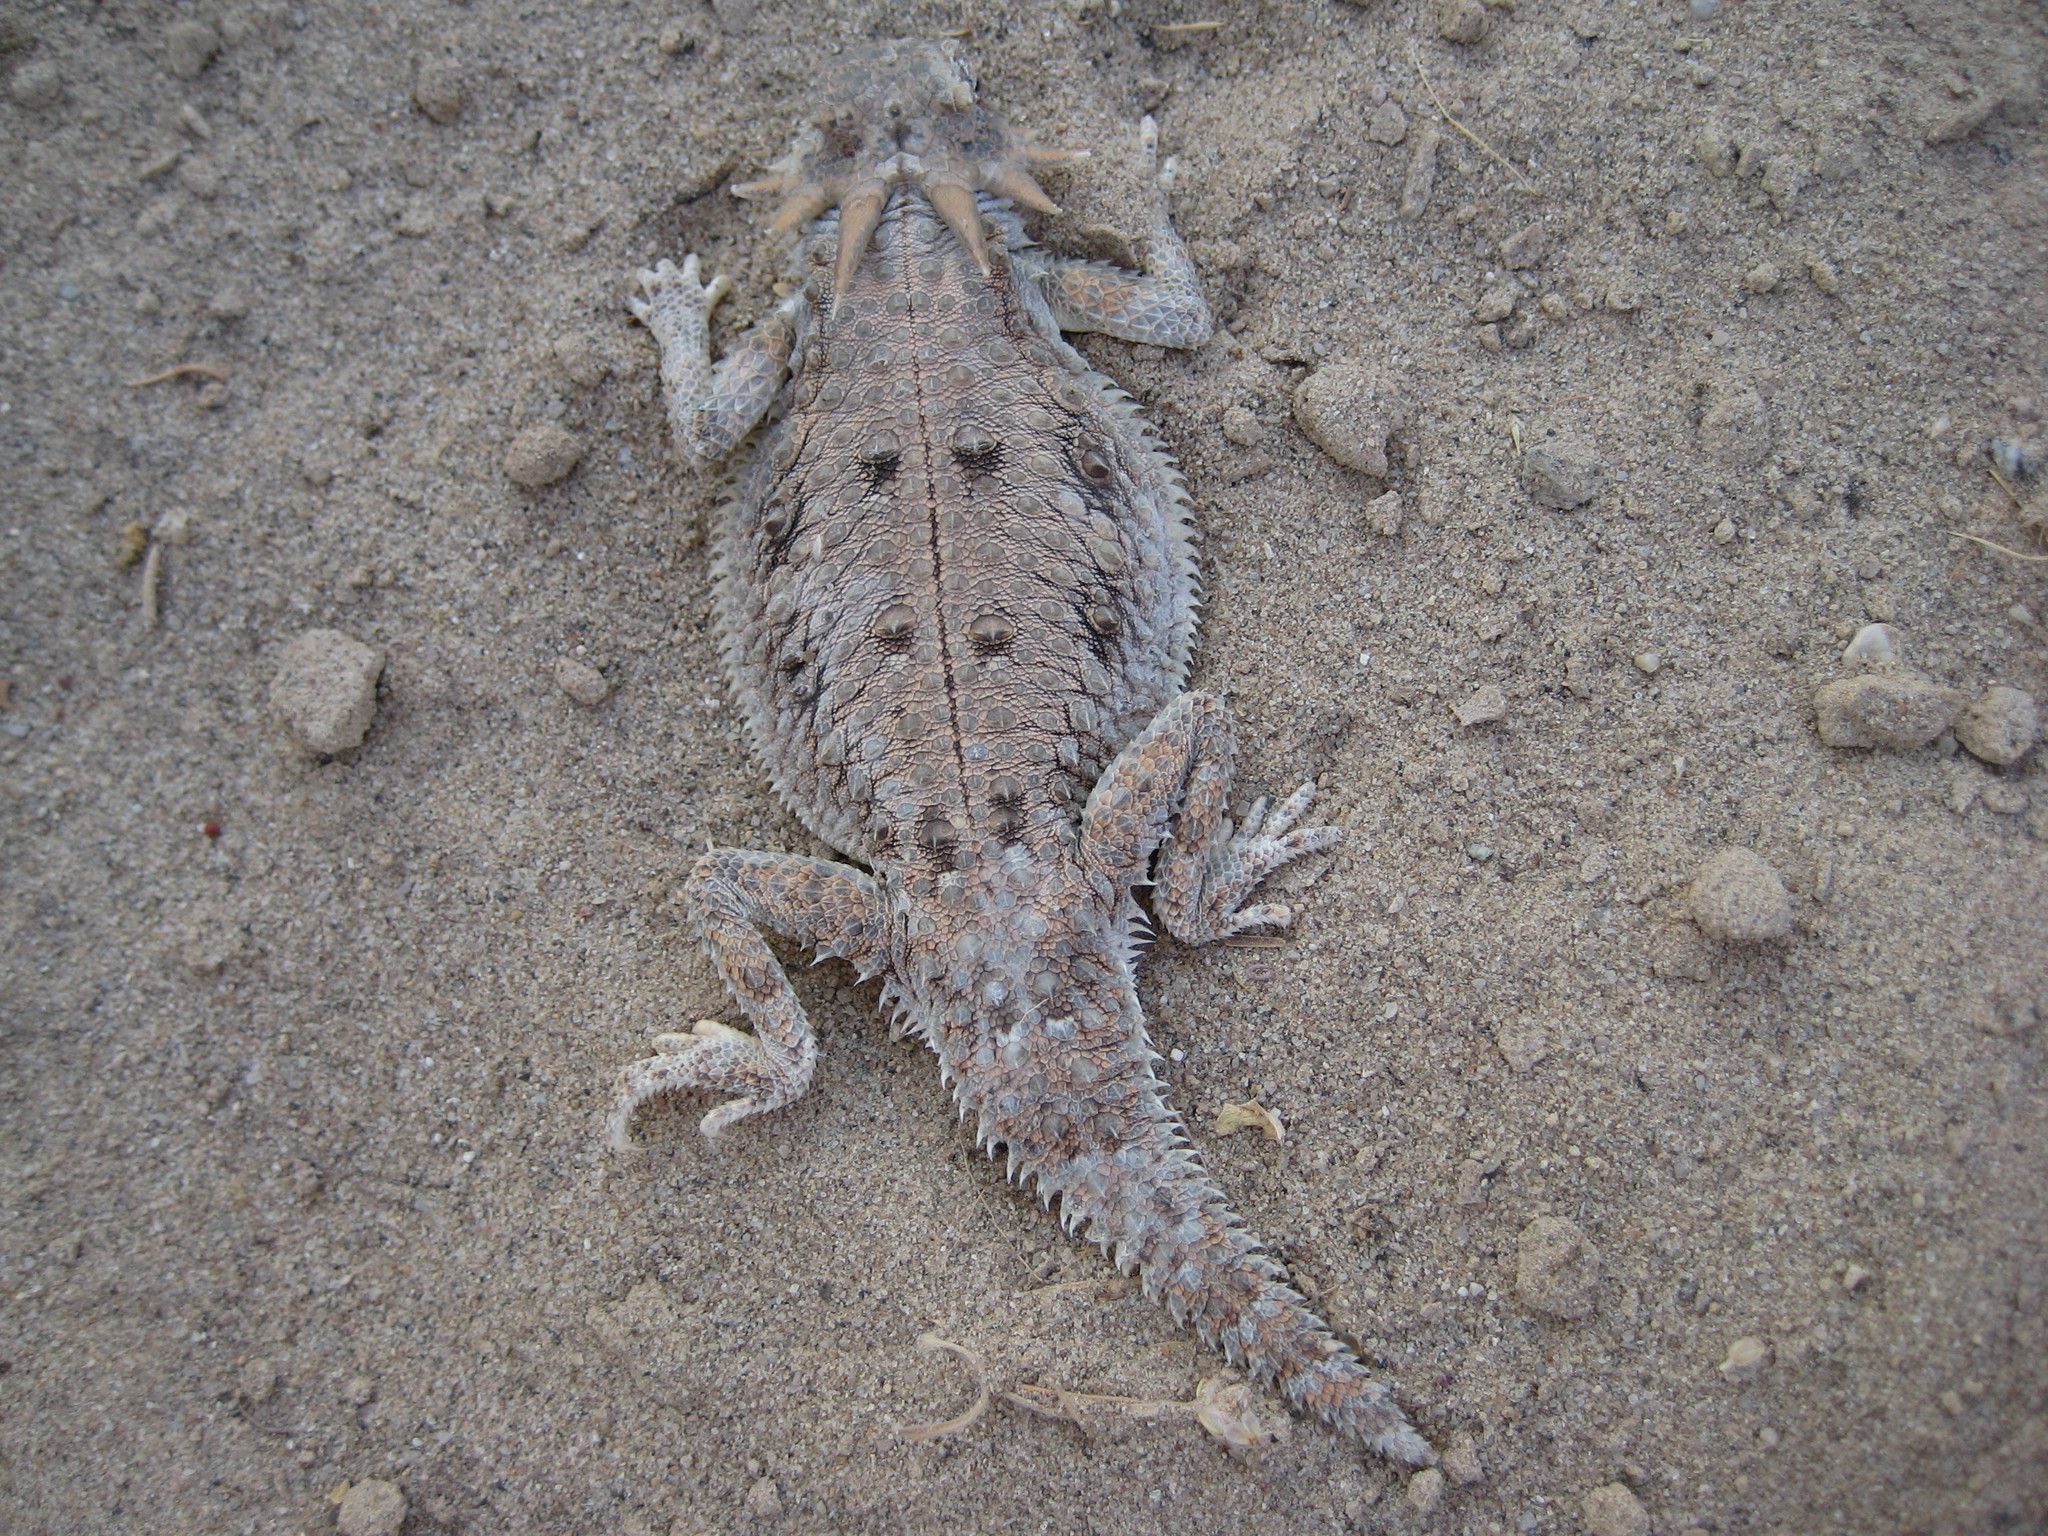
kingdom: Animalia
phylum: Chordata
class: Squamata
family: Phrynosomatidae
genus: Phrynosoma
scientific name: Phrynosoma mcallii
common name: Flat-tailed horned lizard
